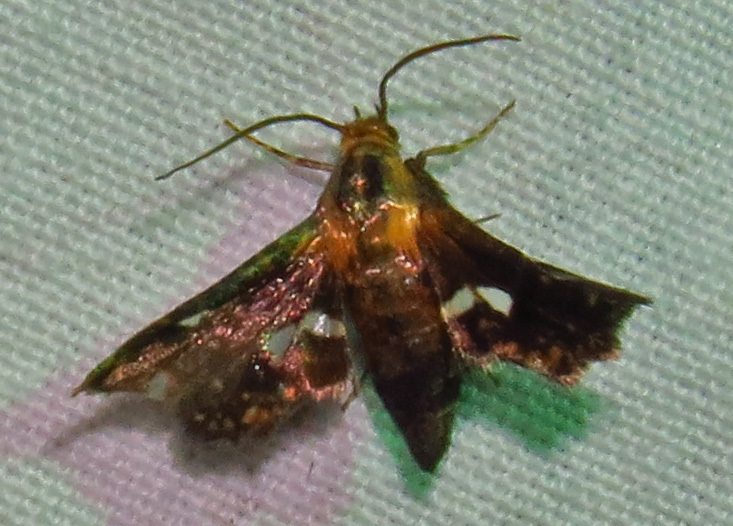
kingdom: Animalia
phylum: Arthropoda
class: Insecta
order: Lepidoptera
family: Thyrididae
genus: Thyris
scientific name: Thyris maculata
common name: Spotted thyris moth
